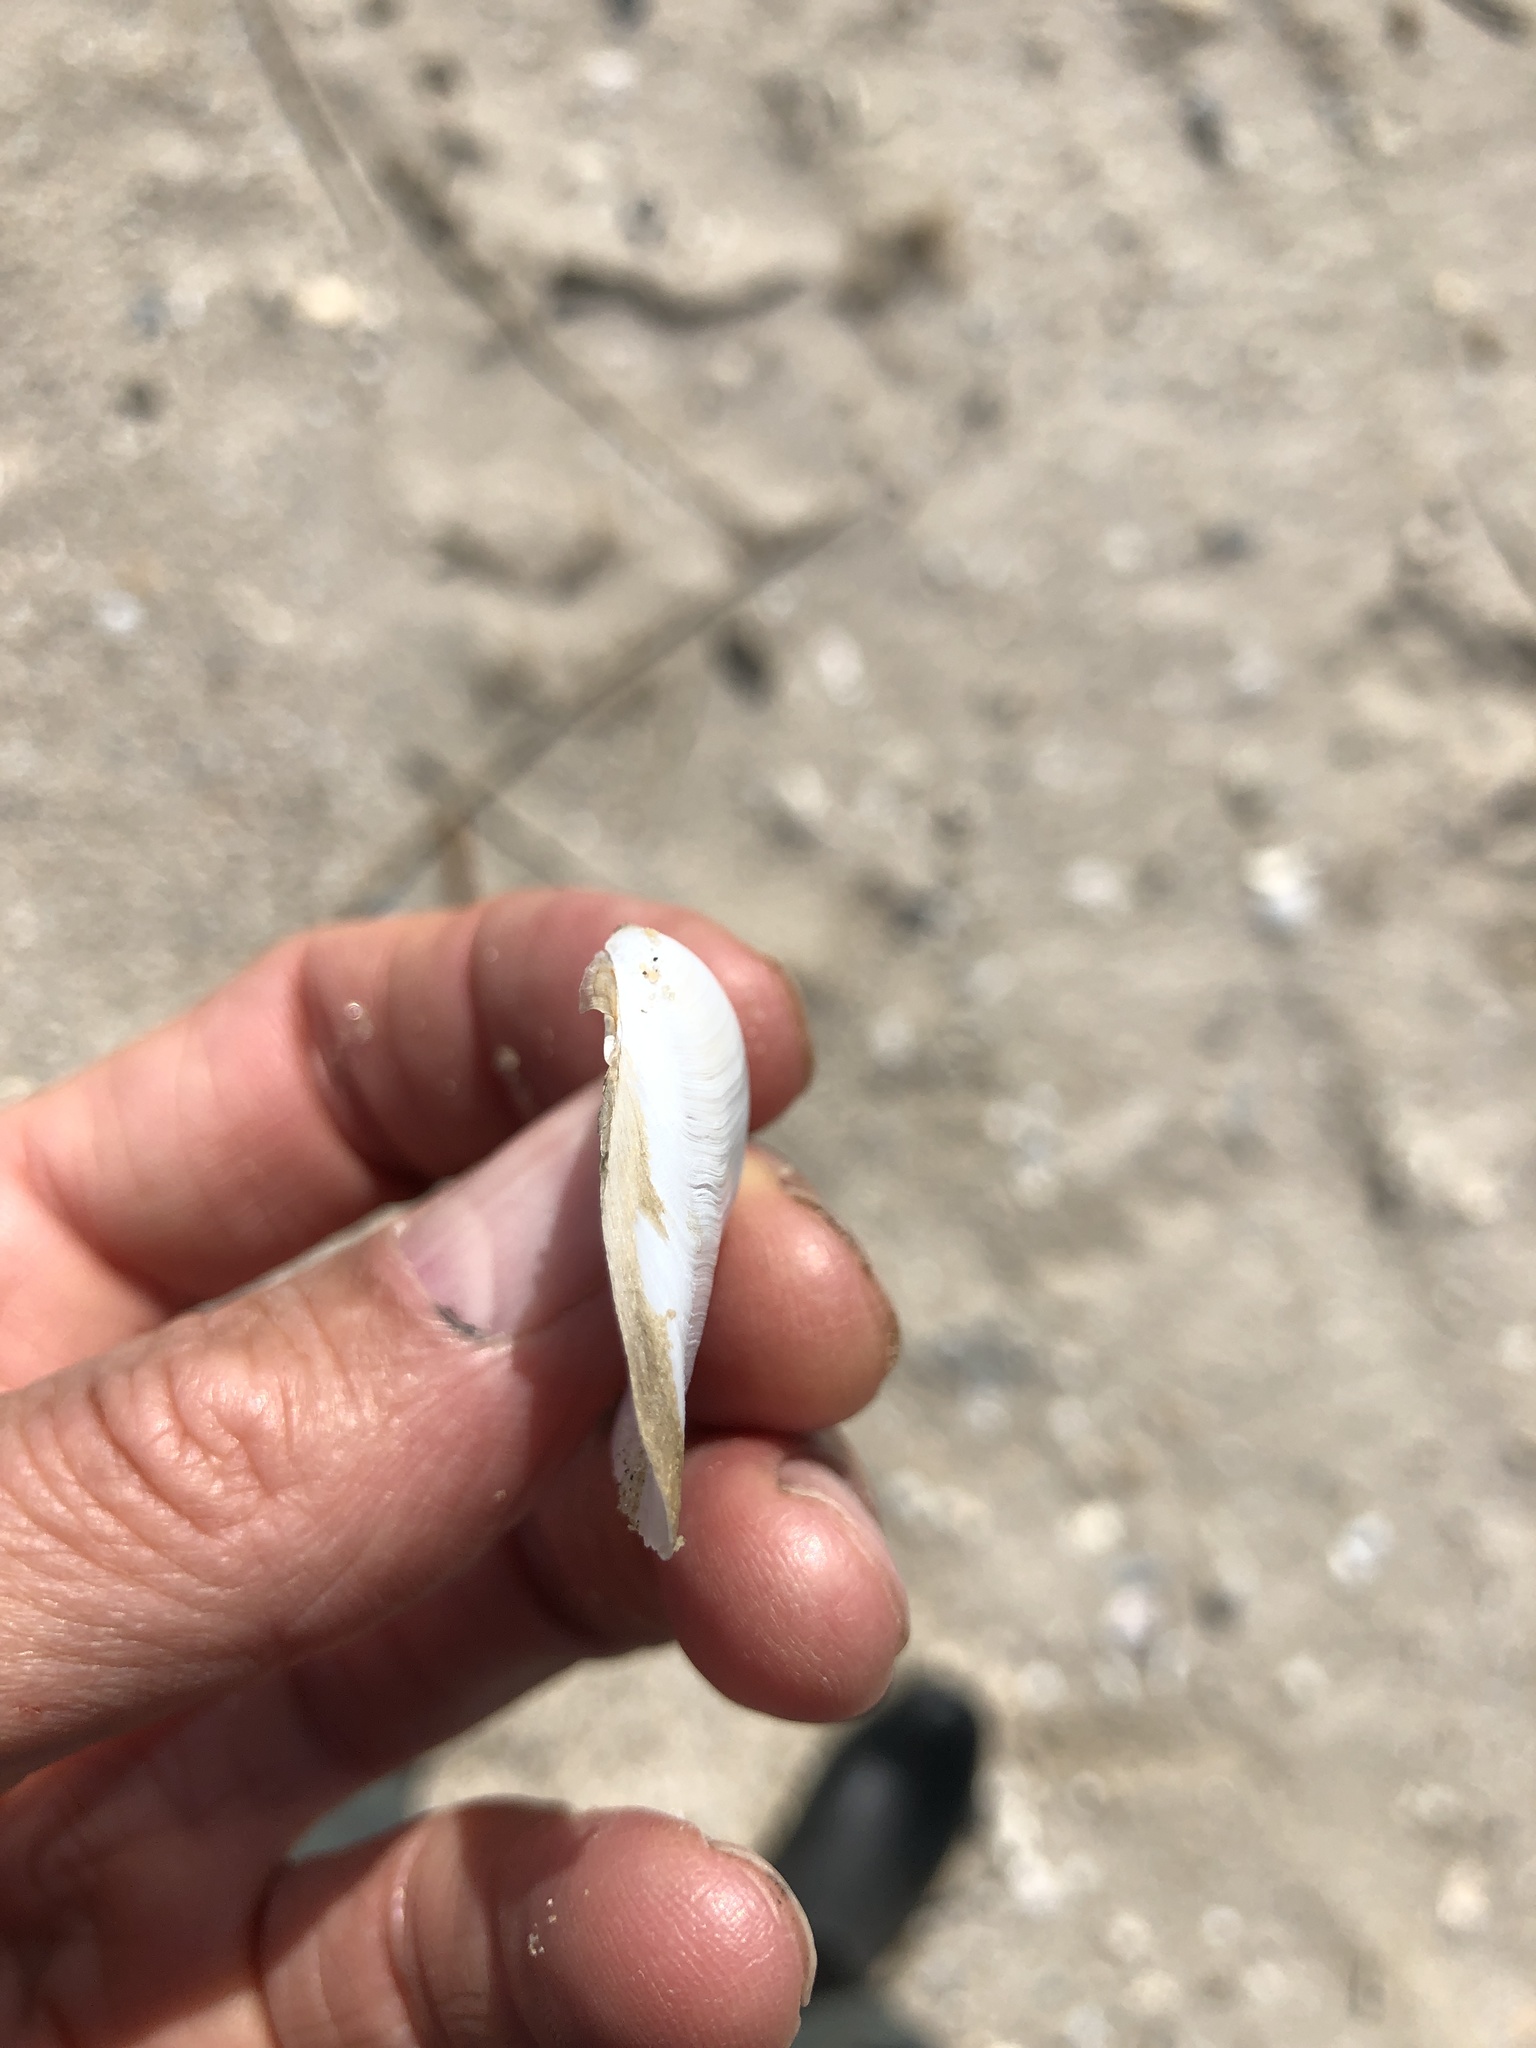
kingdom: Animalia
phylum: Mollusca
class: Bivalvia
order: Cardiida
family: Tellinidae
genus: Austromacoma
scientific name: Austromacoma constricta
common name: Constricted macoma
